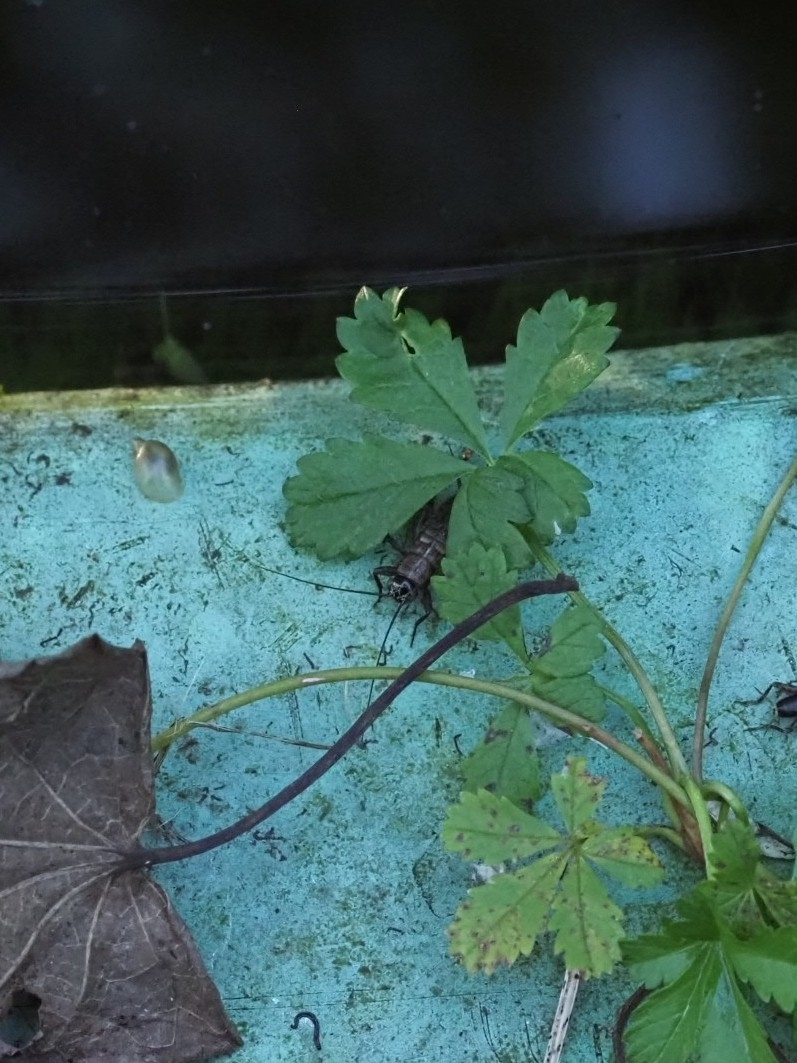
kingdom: Animalia
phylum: Arthropoda
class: Insecta
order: Orthoptera
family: Trigonidiidae
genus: Nemobius
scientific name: Nemobius sylvestris
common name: Wood-cricket
